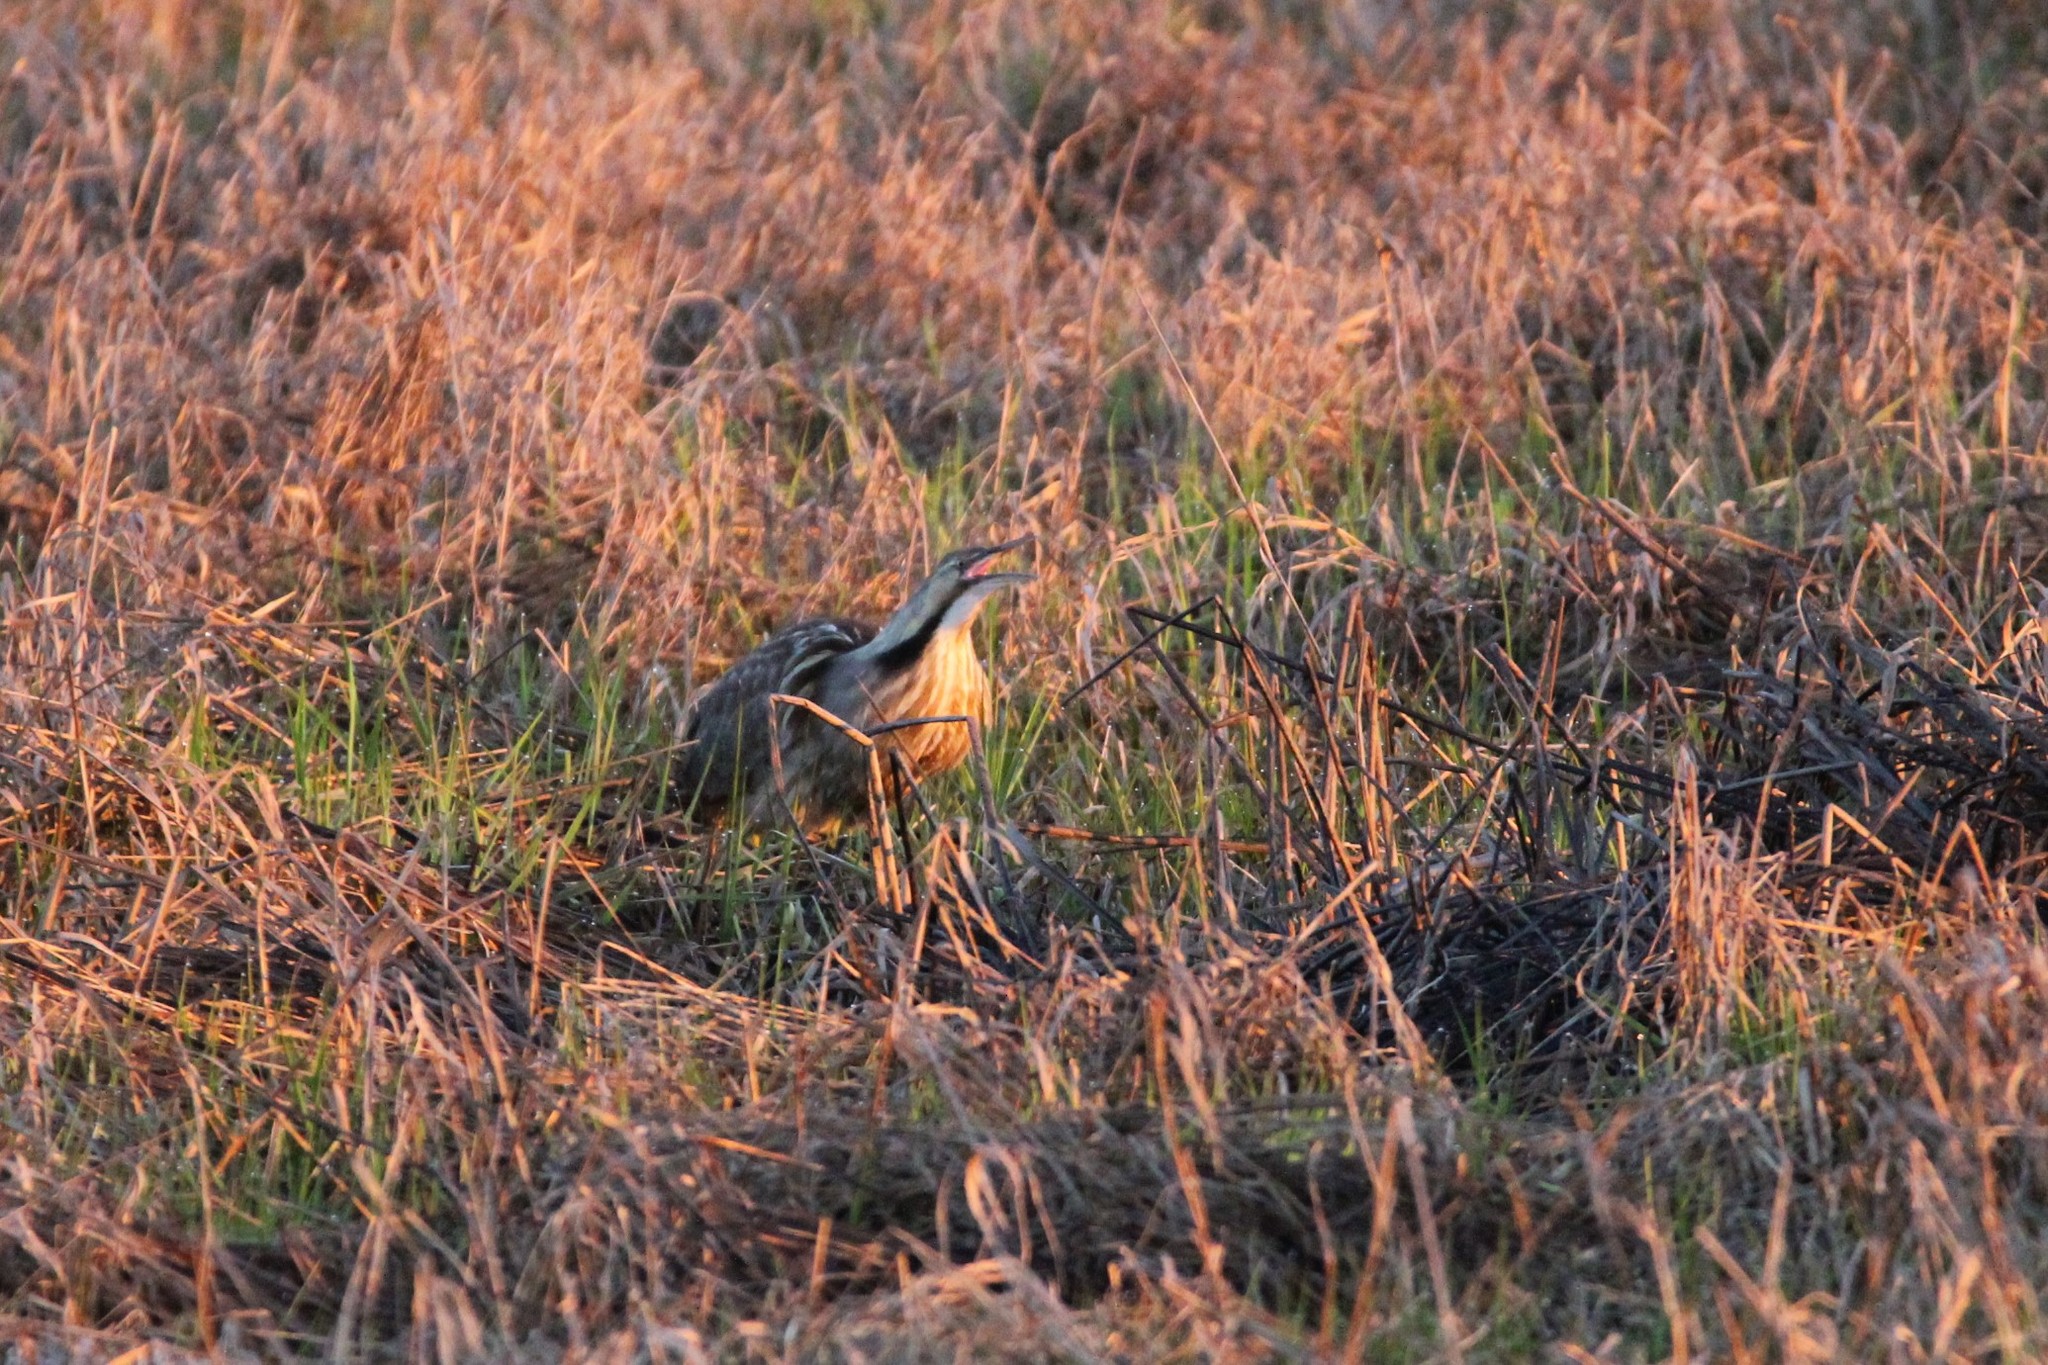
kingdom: Animalia
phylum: Chordata
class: Aves
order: Pelecaniformes
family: Ardeidae
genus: Botaurus
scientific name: Botaurus lentiginosus
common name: American bittern
